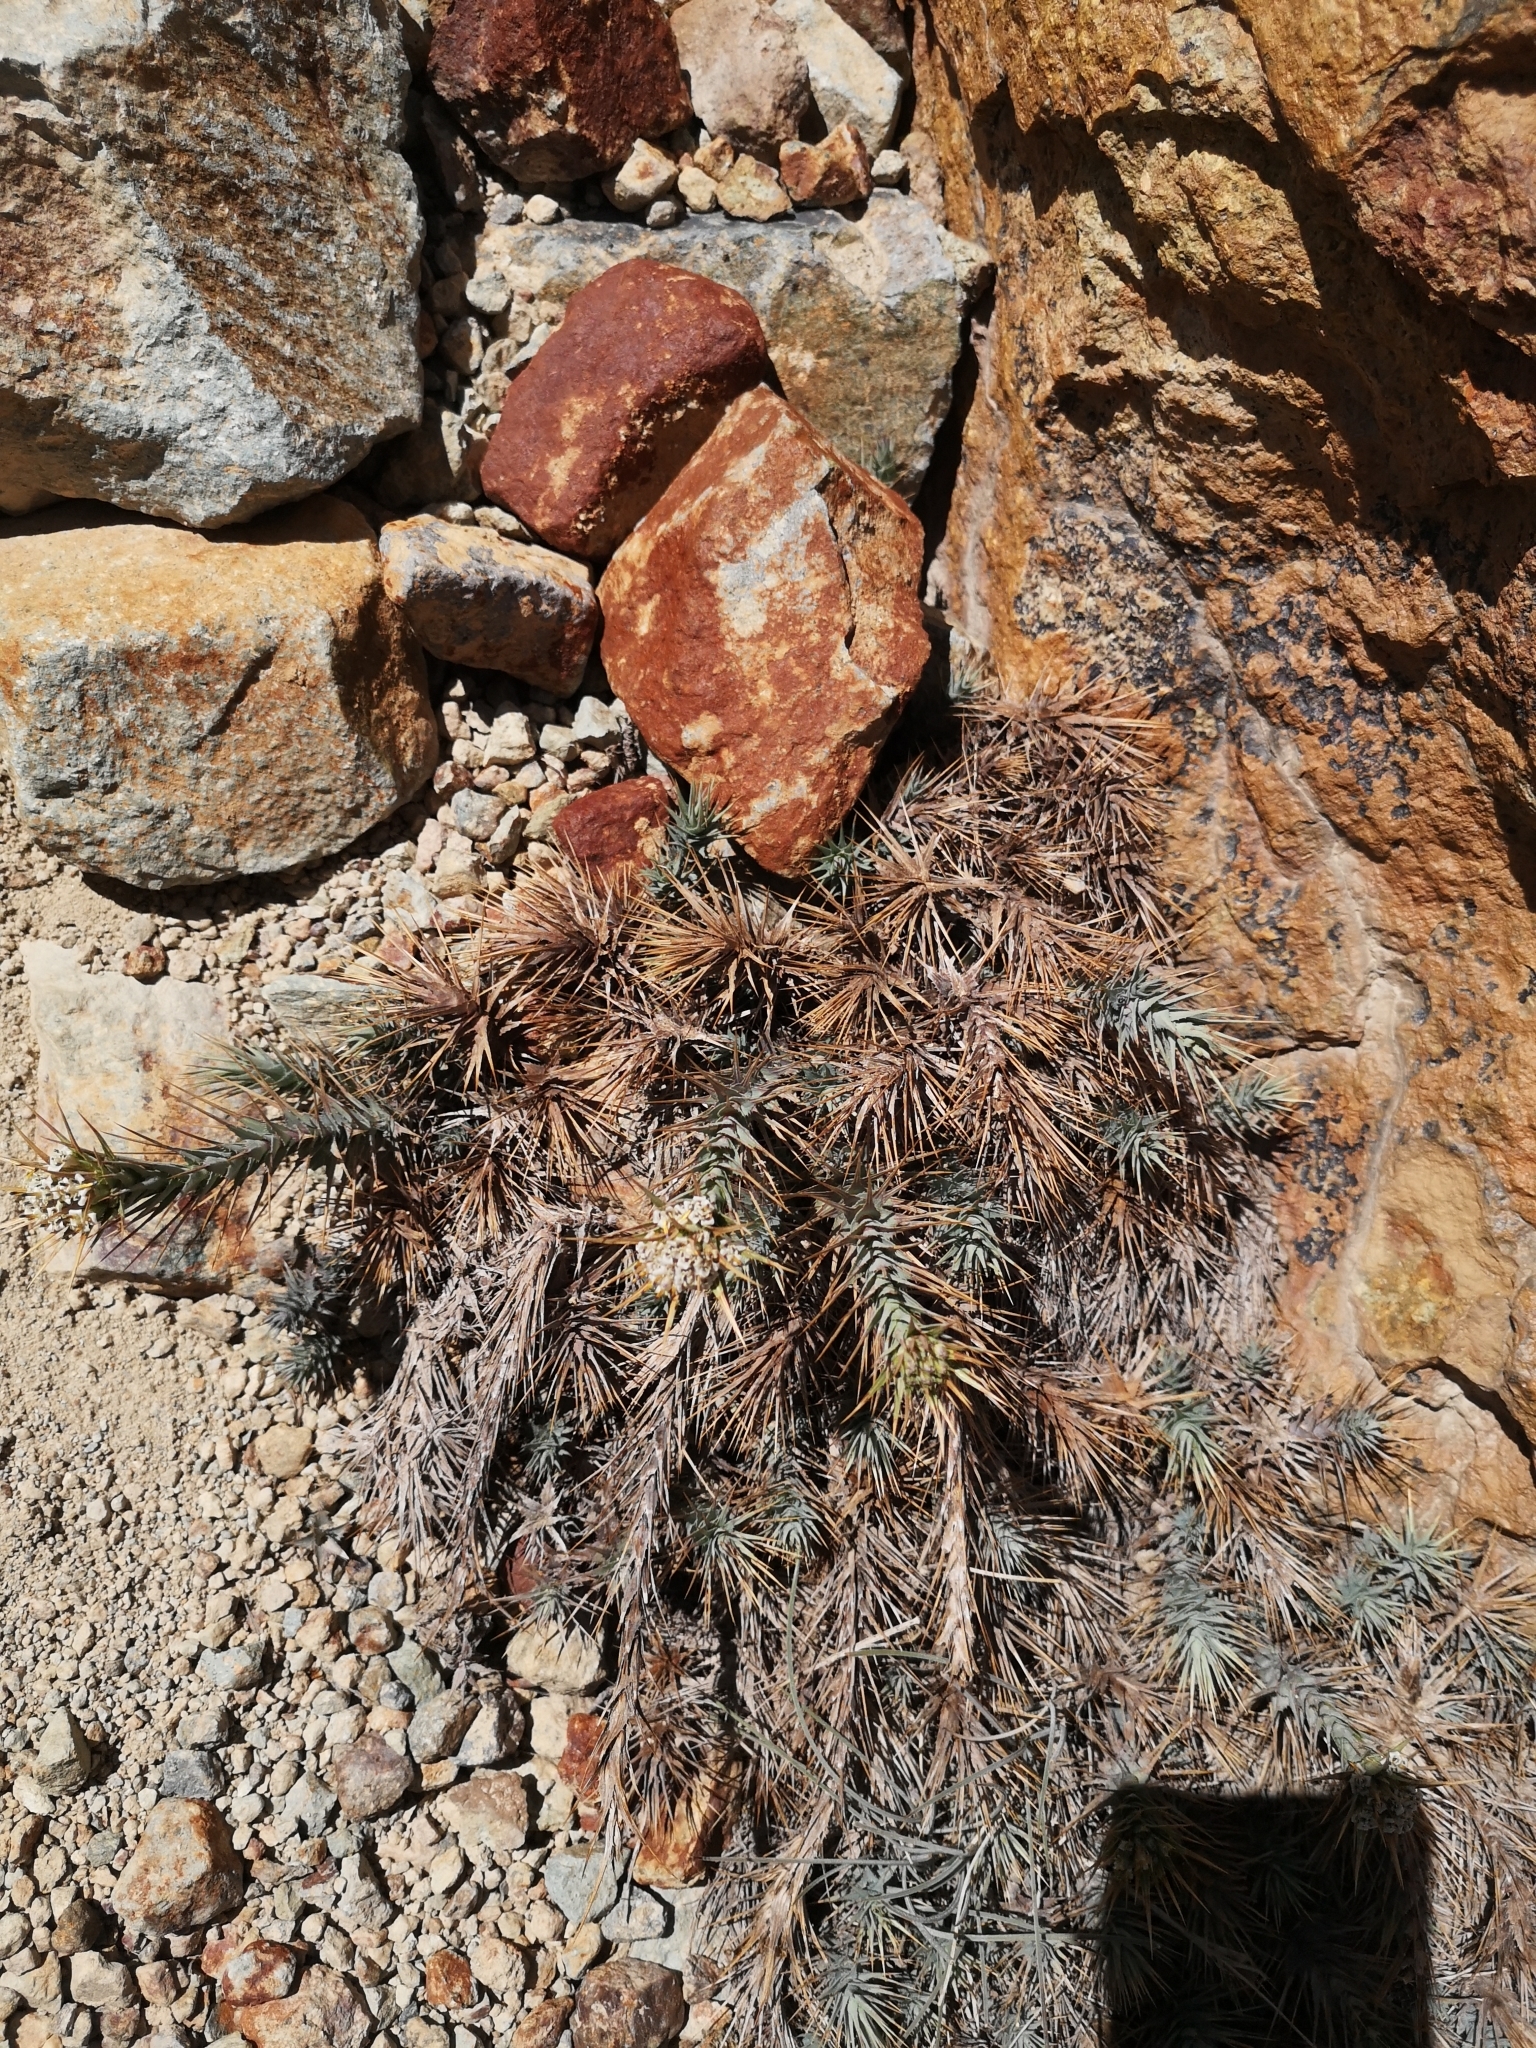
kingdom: Plantae
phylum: Tracheophyta
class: Magnoliopsida
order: Asterales
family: Asteraceae
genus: Nassauvia
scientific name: Nassauvia cumingii
